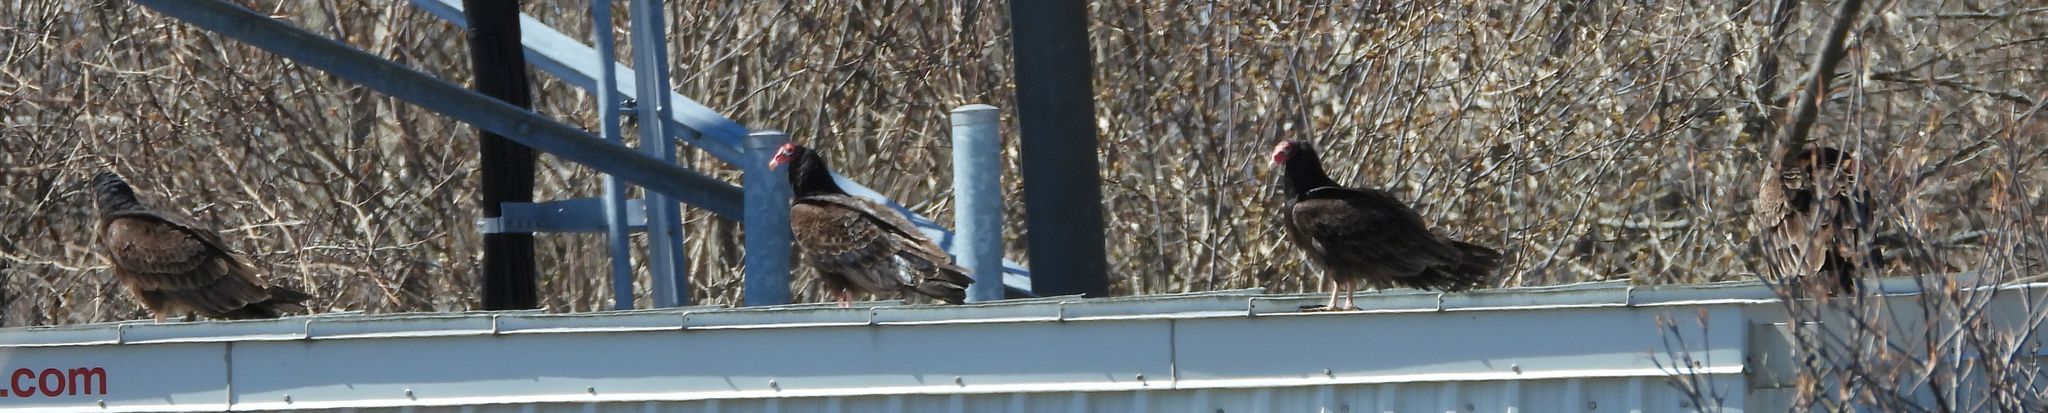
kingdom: Animalia
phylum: Chordata
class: Aves
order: Accipitriformes
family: Cathartidae
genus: Cathartes
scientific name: Cathartes aura
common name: Turkey vulture
